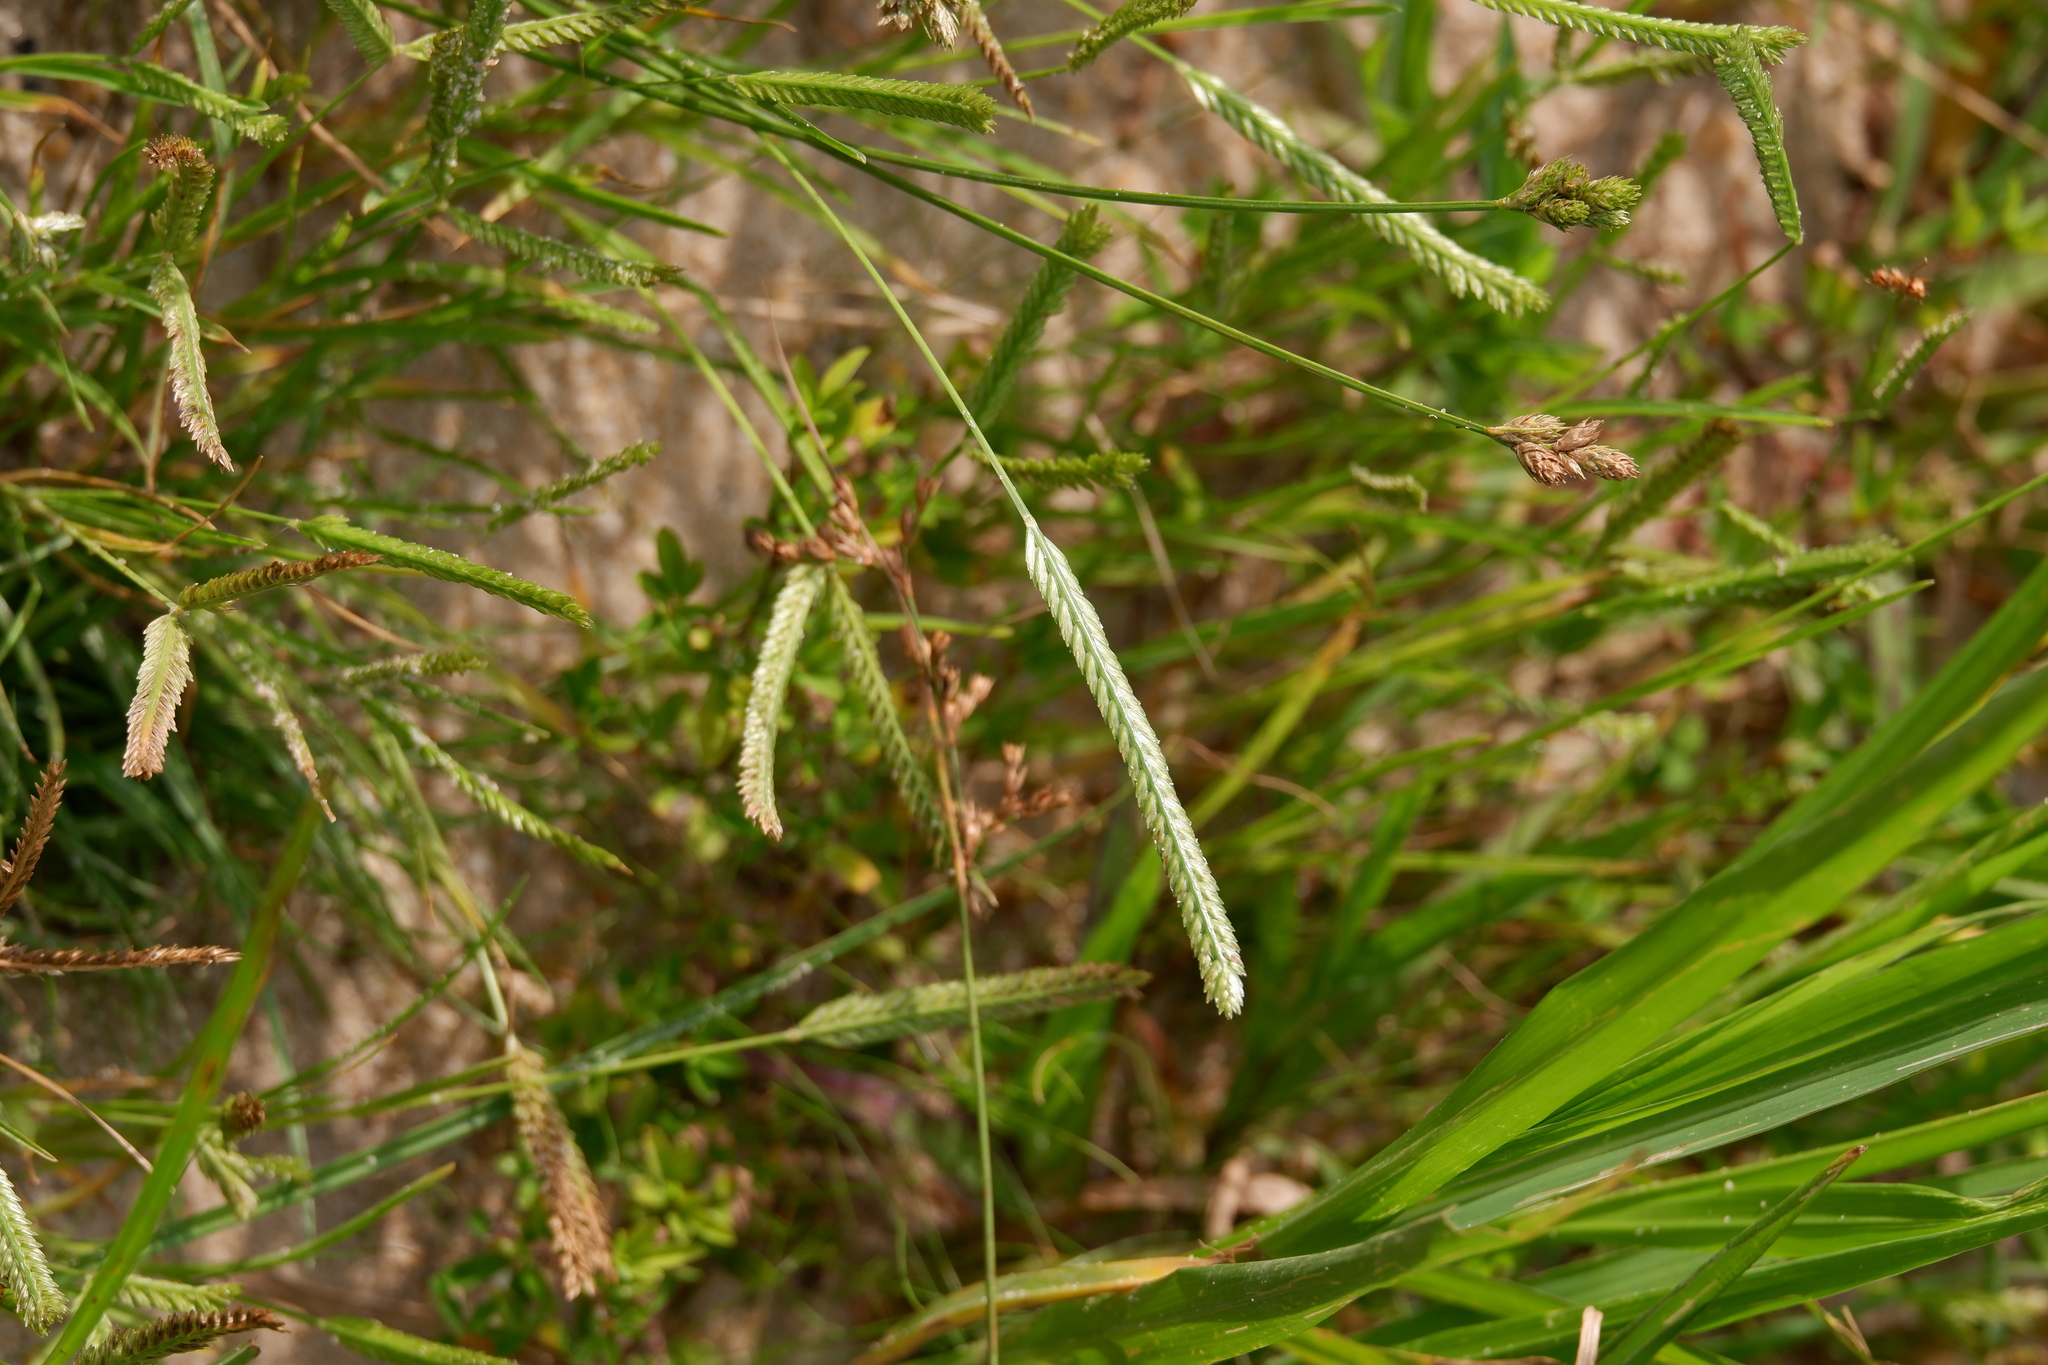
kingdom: Plantae
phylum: Tracheophyta
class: Liliopsida
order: Poales
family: Poaceae
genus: Eleusine
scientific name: Eleusine indica
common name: Yard-grass
